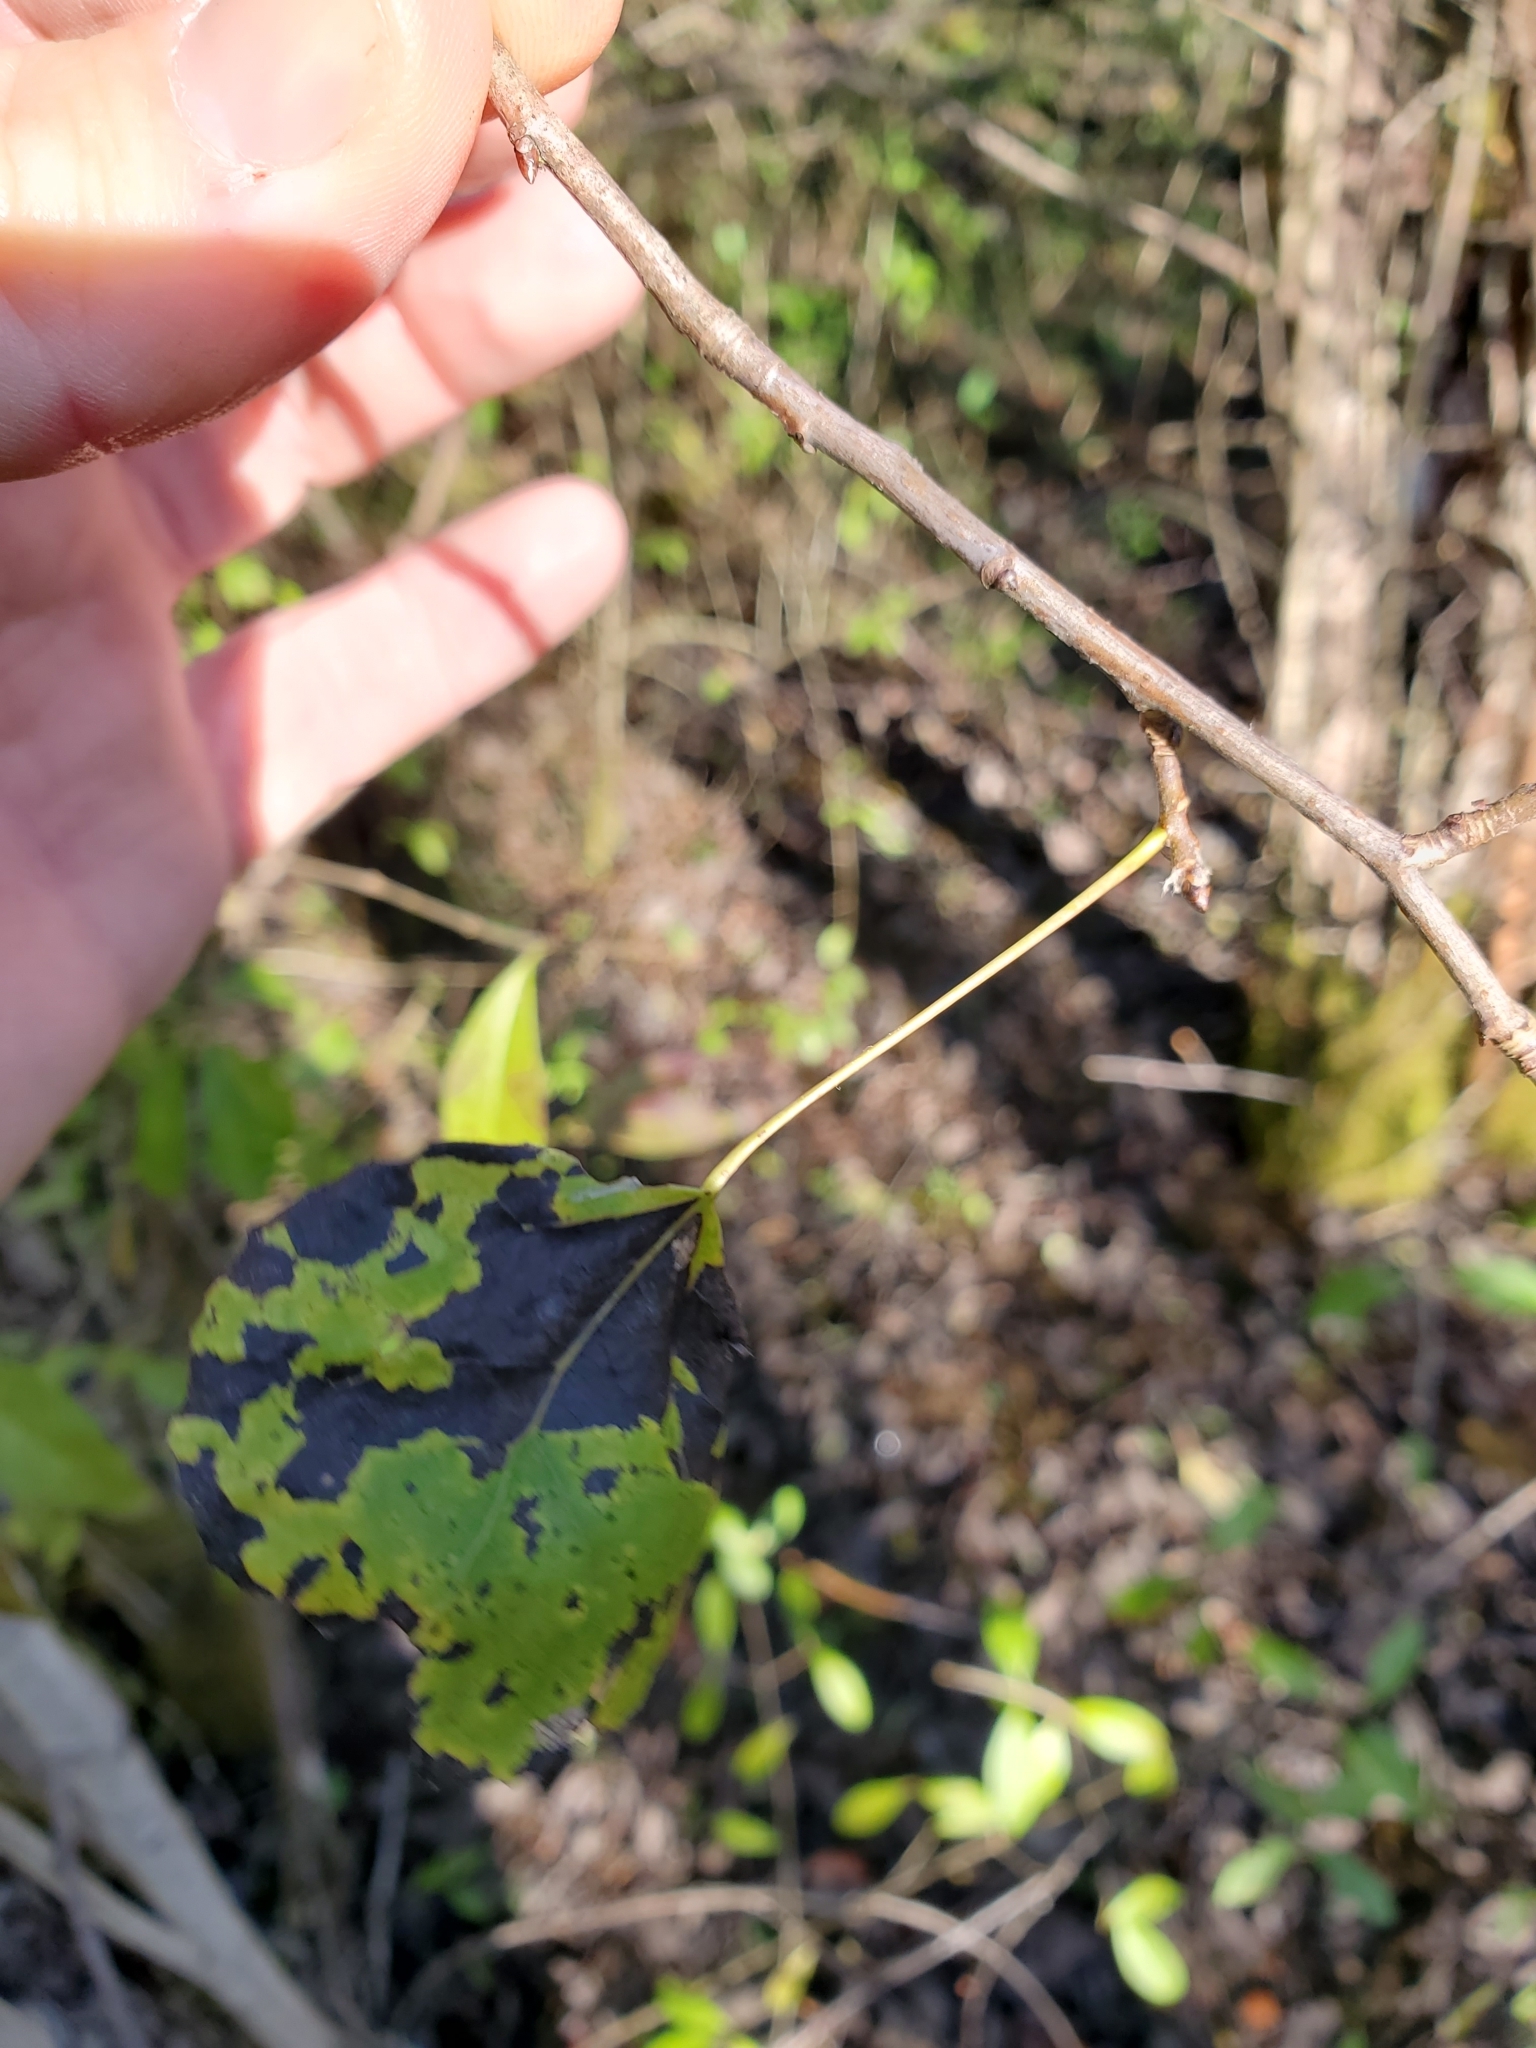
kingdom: Plantae
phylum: Tracheophyta
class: Magnoliopsida
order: Malpighiales
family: Salicaceae
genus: Populus
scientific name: Populus tremuloides
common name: Quaking aspen
